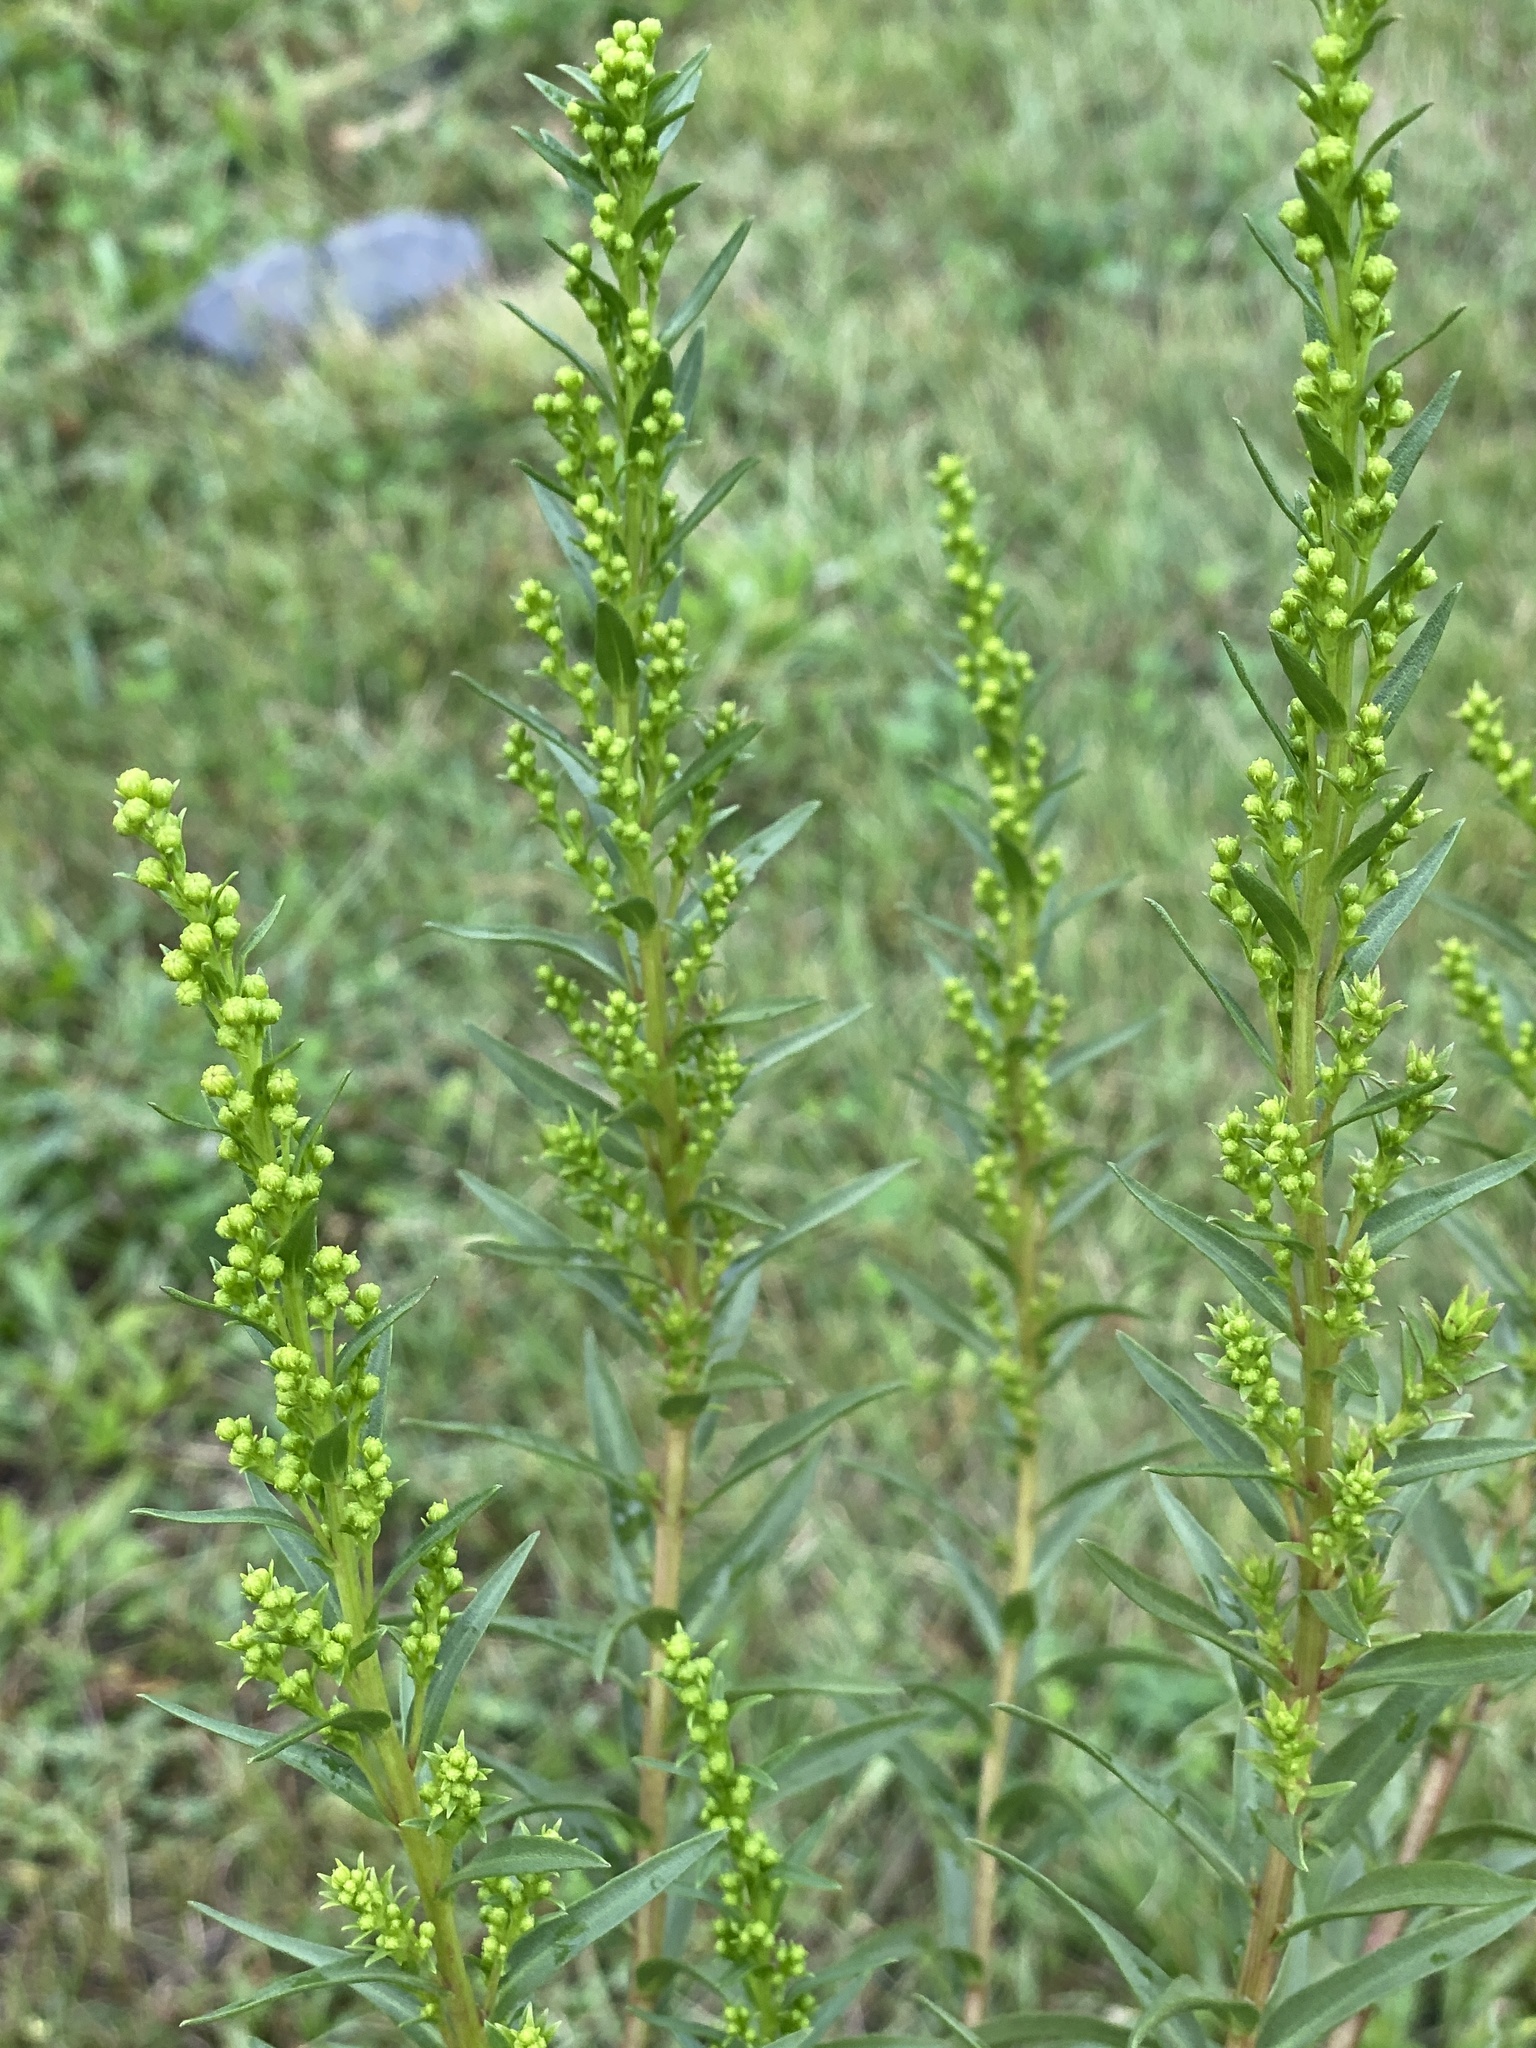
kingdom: Plantae
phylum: Tracheophyta
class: Magnoliopsida
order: Asterales
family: Asteraceae
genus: Solidago
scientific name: Solidago sempervirens
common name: Salt-marsh goldenrod
